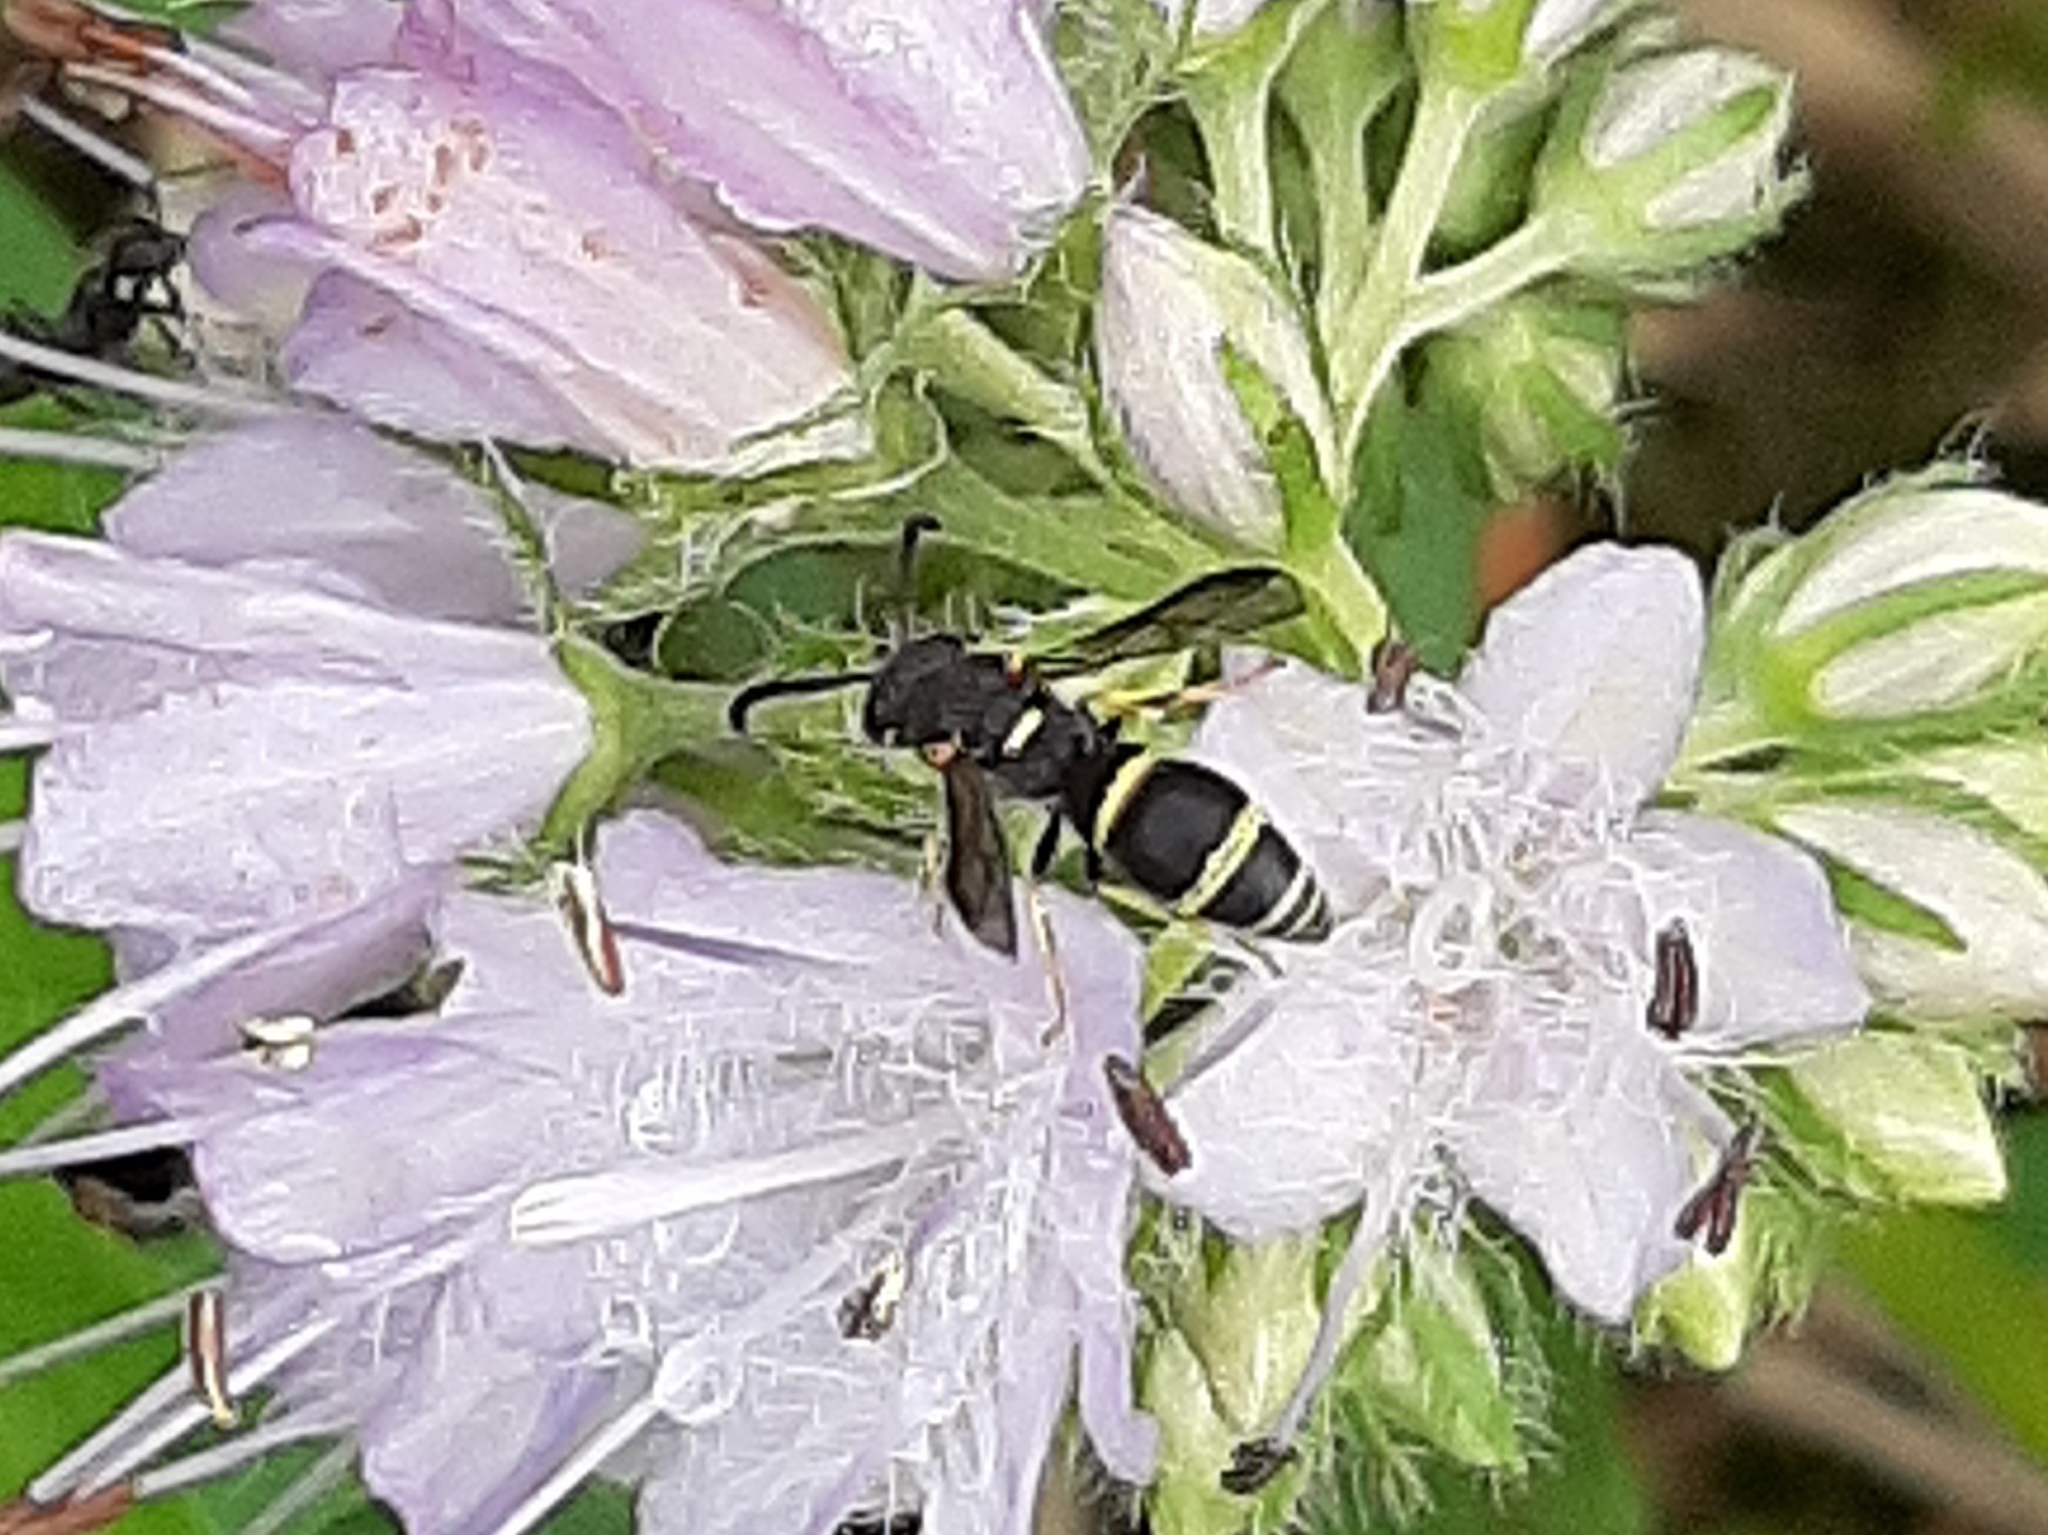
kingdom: Animalia
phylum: Arthropoda
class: Insecta
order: Hymenoptera
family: Eumenidae
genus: Parancistrocerus
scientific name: Parancistrocerus pensylvanicus
